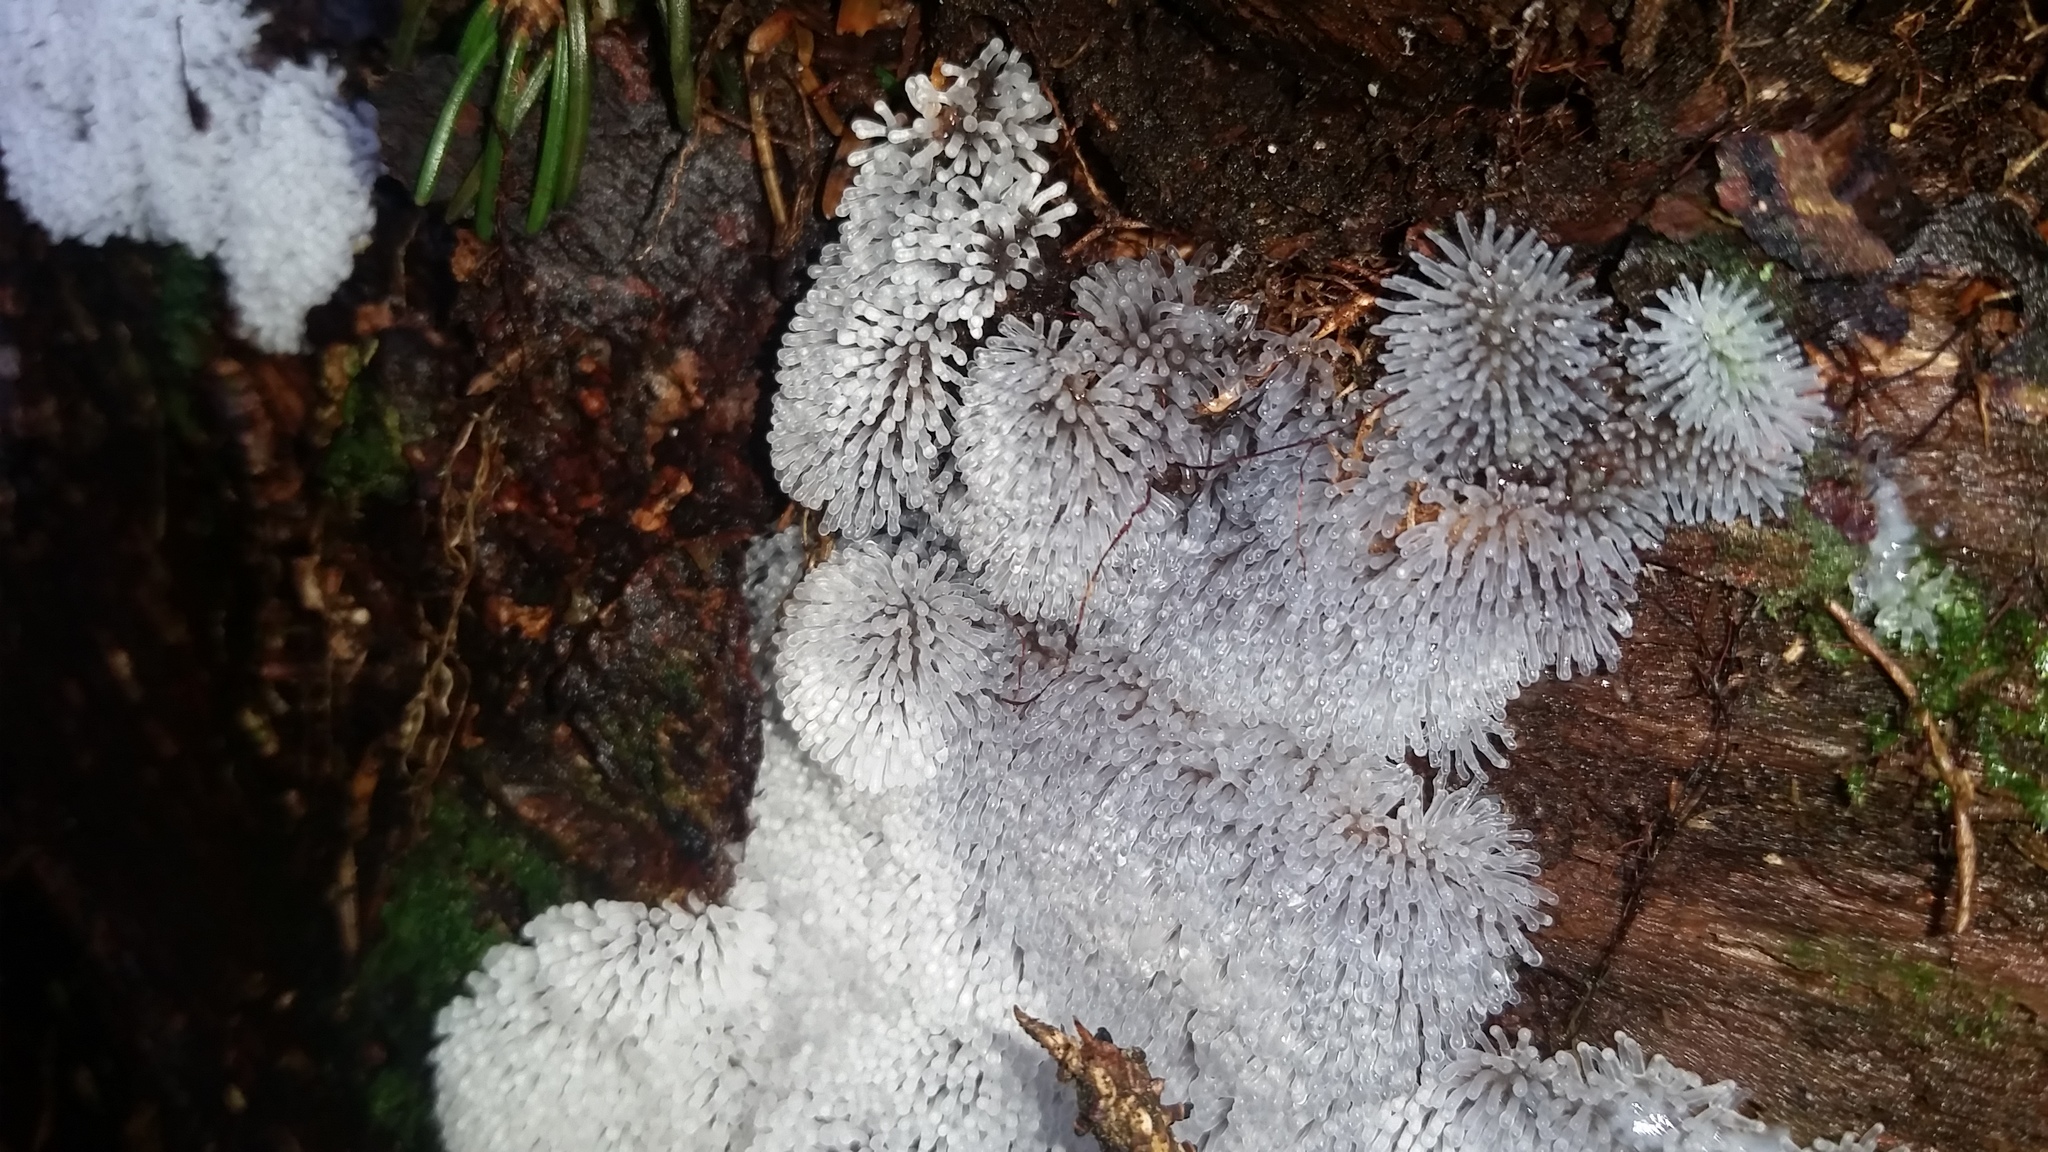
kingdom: Protozoa
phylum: Mycetozoa
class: Protosteliomycetes
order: Ceratiomyxales
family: Ceratiomyxaceae
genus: Ceratiomyxa
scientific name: Ceratiomyxa fruticulosa
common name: Honeycomb coral slime mold
